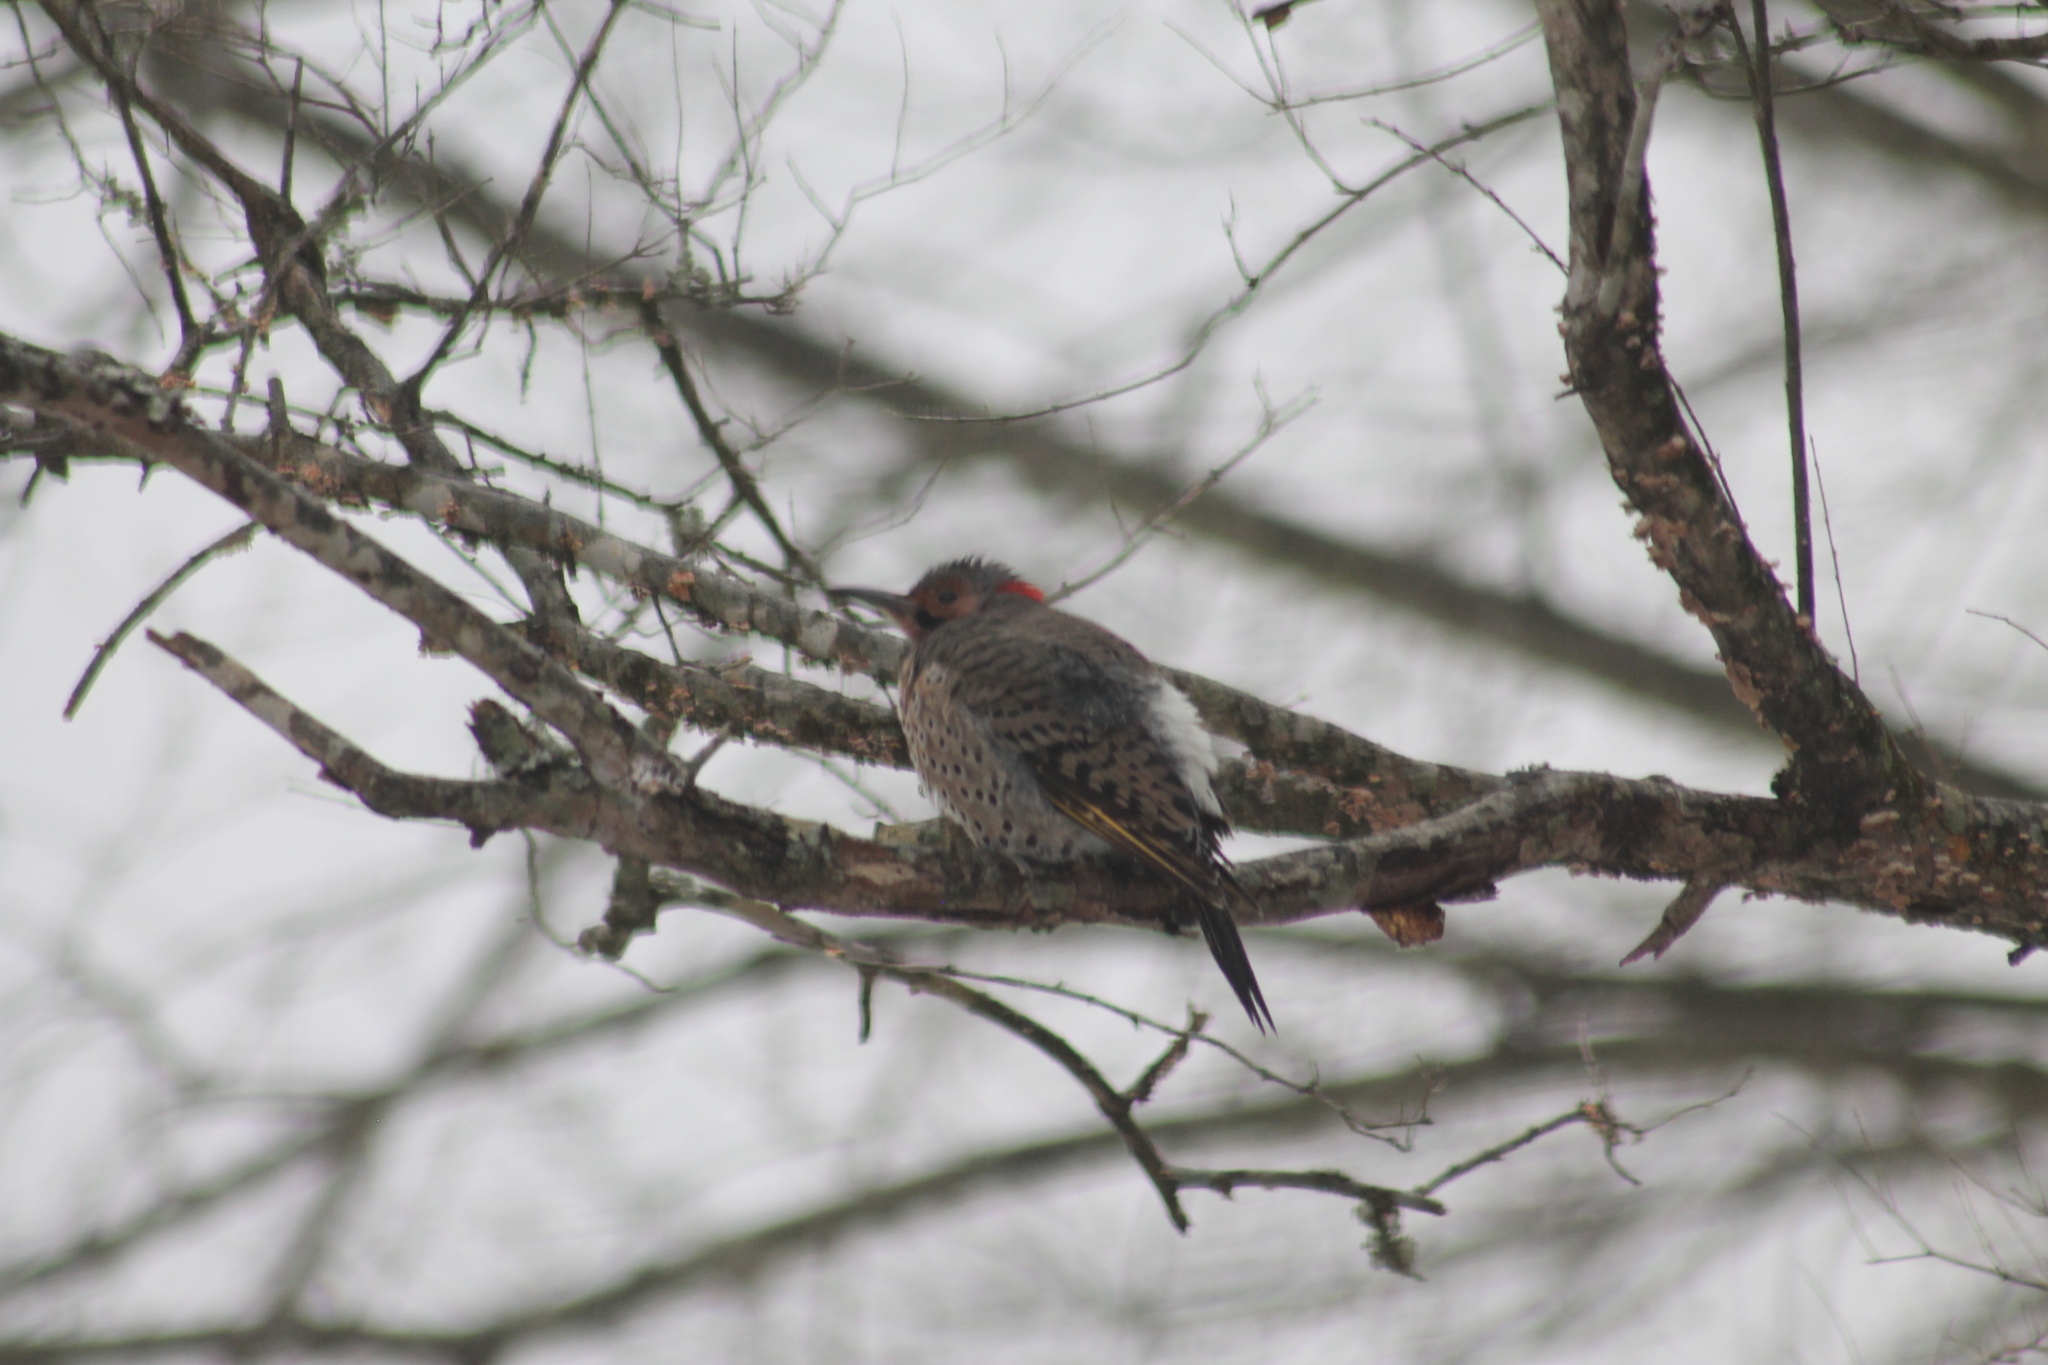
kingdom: Animalia
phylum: Chordata
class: Aves
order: Piciformes
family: Picidae
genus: Colaptes
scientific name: Colaptes auratus
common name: Northern flicker
